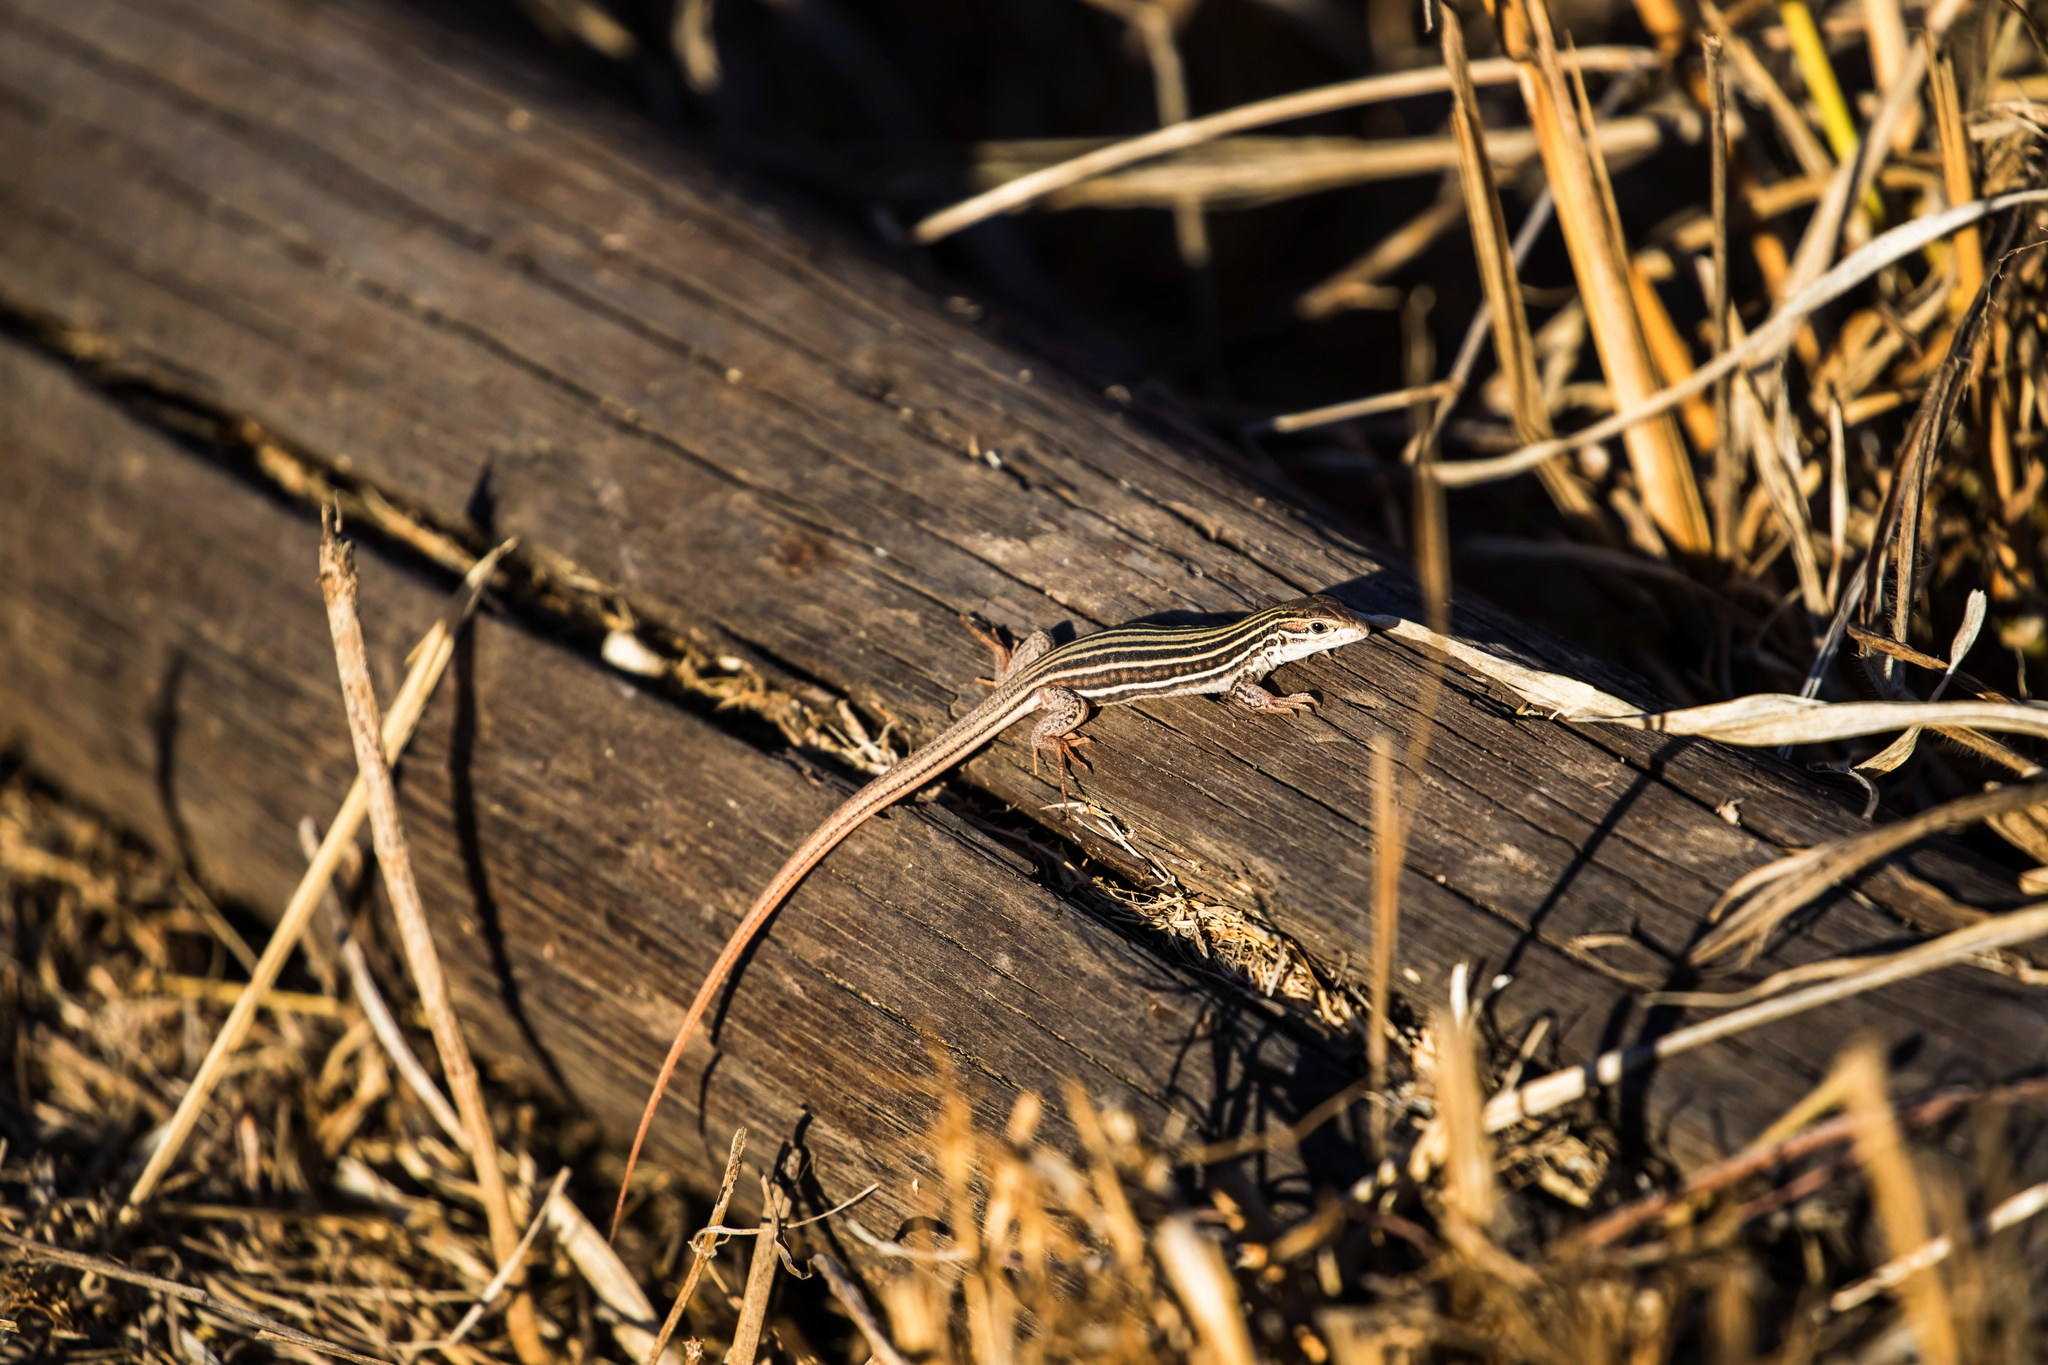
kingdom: Animalia
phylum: Chordata
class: Squamata
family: Teiidae
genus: Aspidoscelis
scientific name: Aspidoscelis gularis
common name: Eastern spotted whiptail
